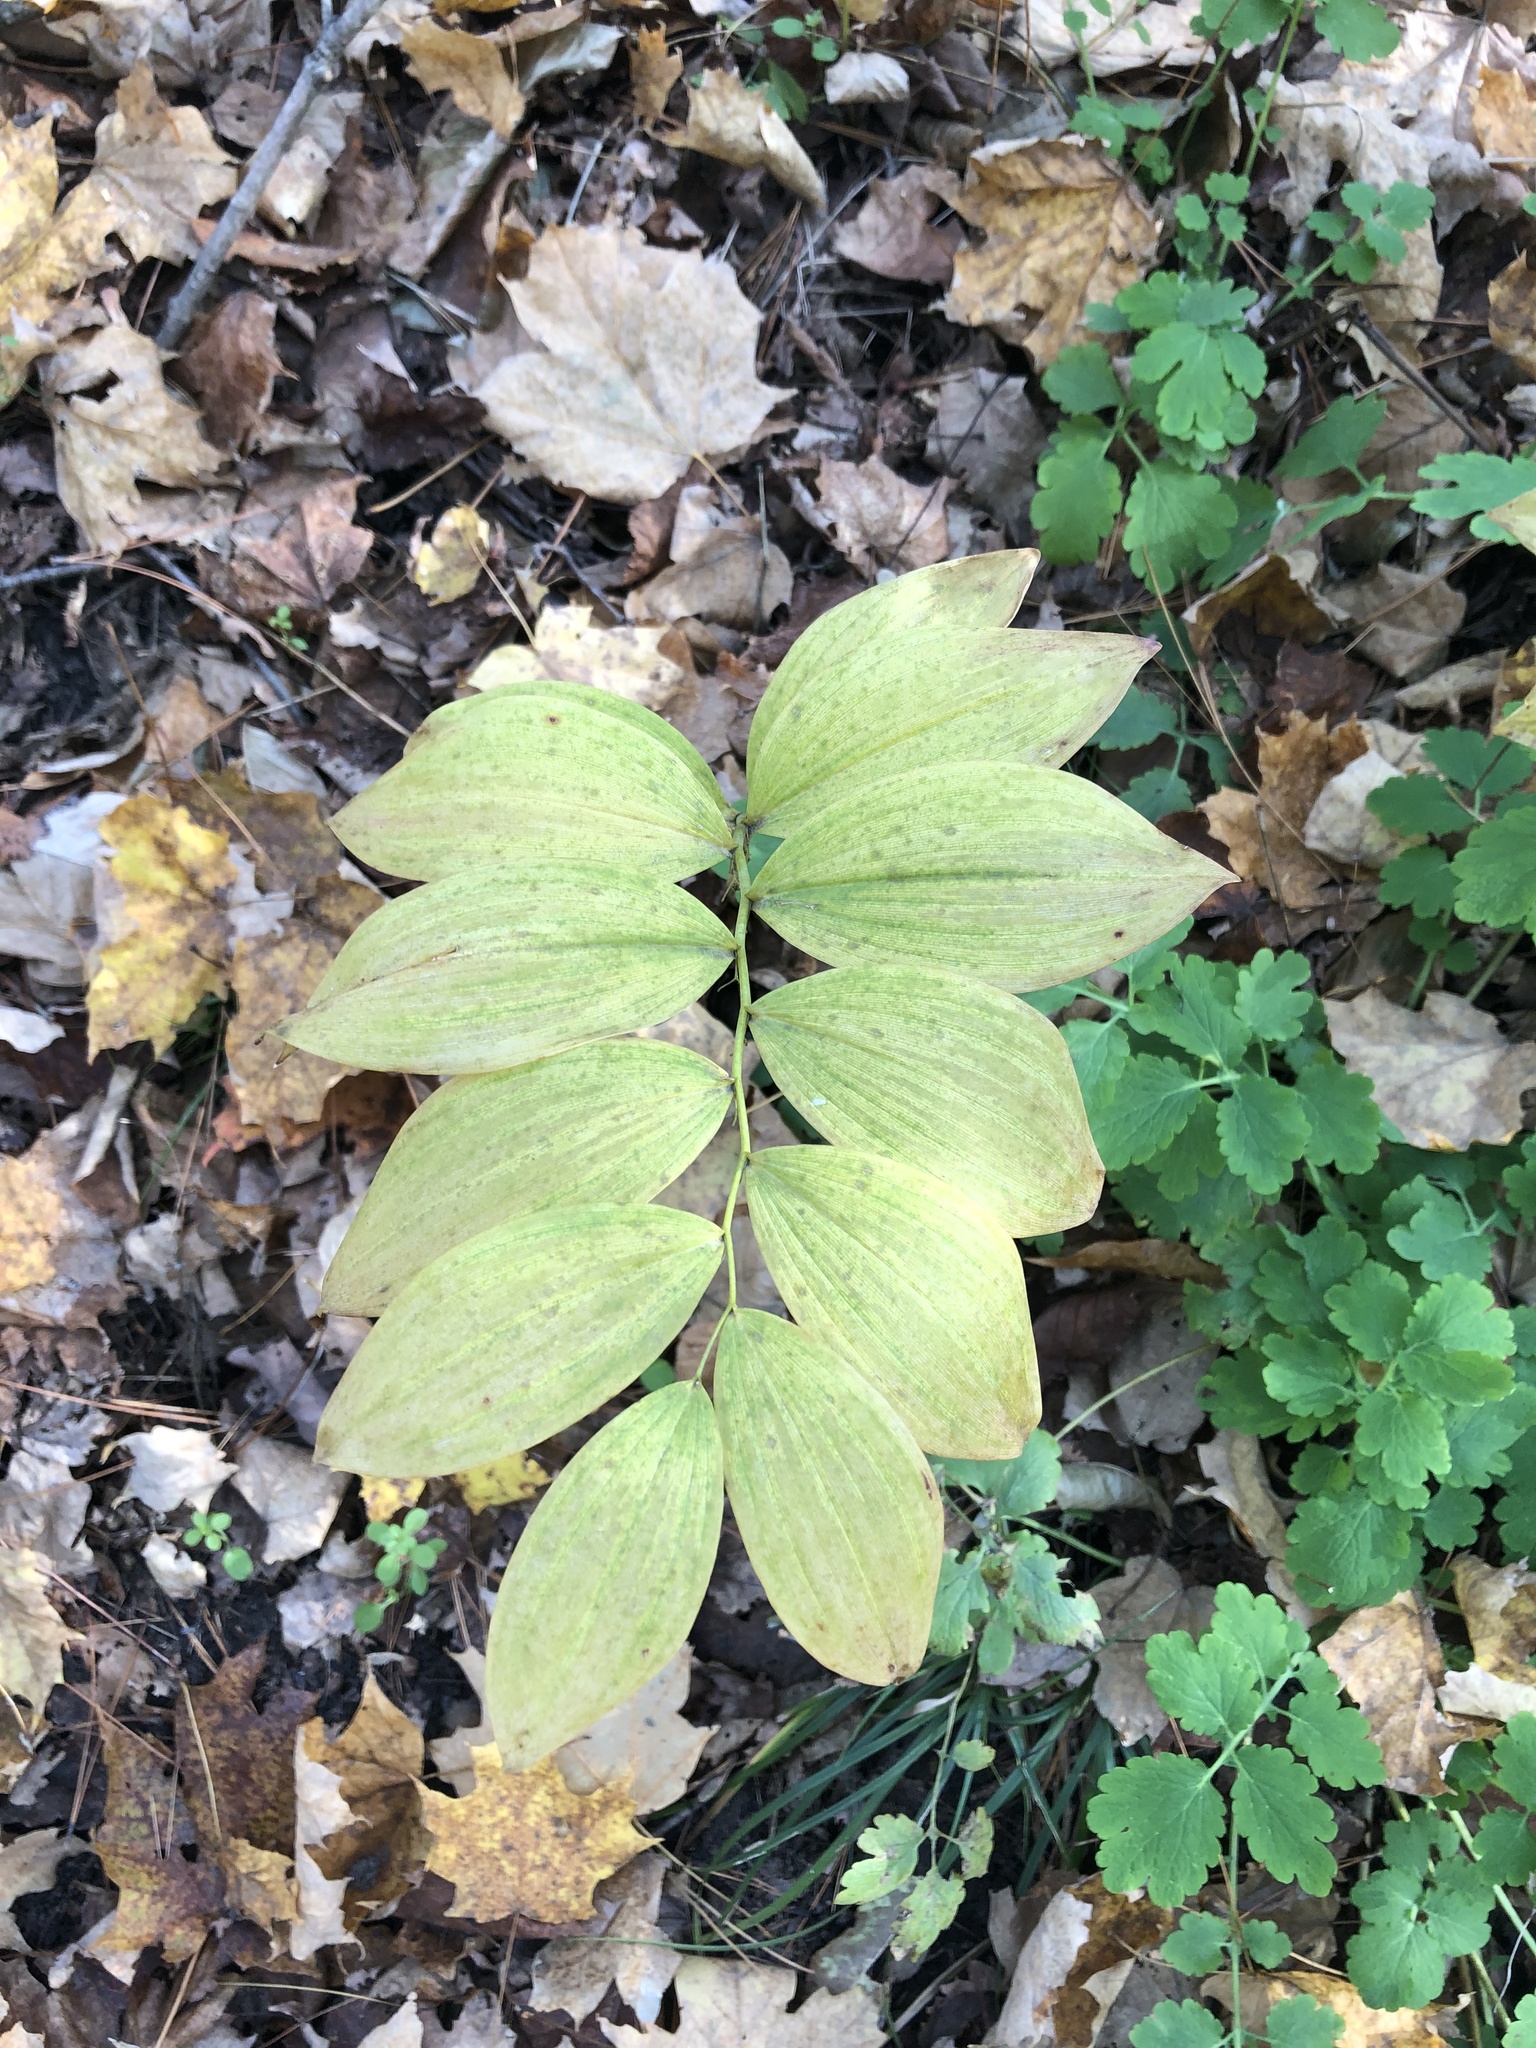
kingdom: Plantae
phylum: Tracheophyta
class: Liliopsida
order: Asparagales
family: Asparagaceae
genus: Polygonatum
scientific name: Polygonatum pubescens
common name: Downy solomon's seal
